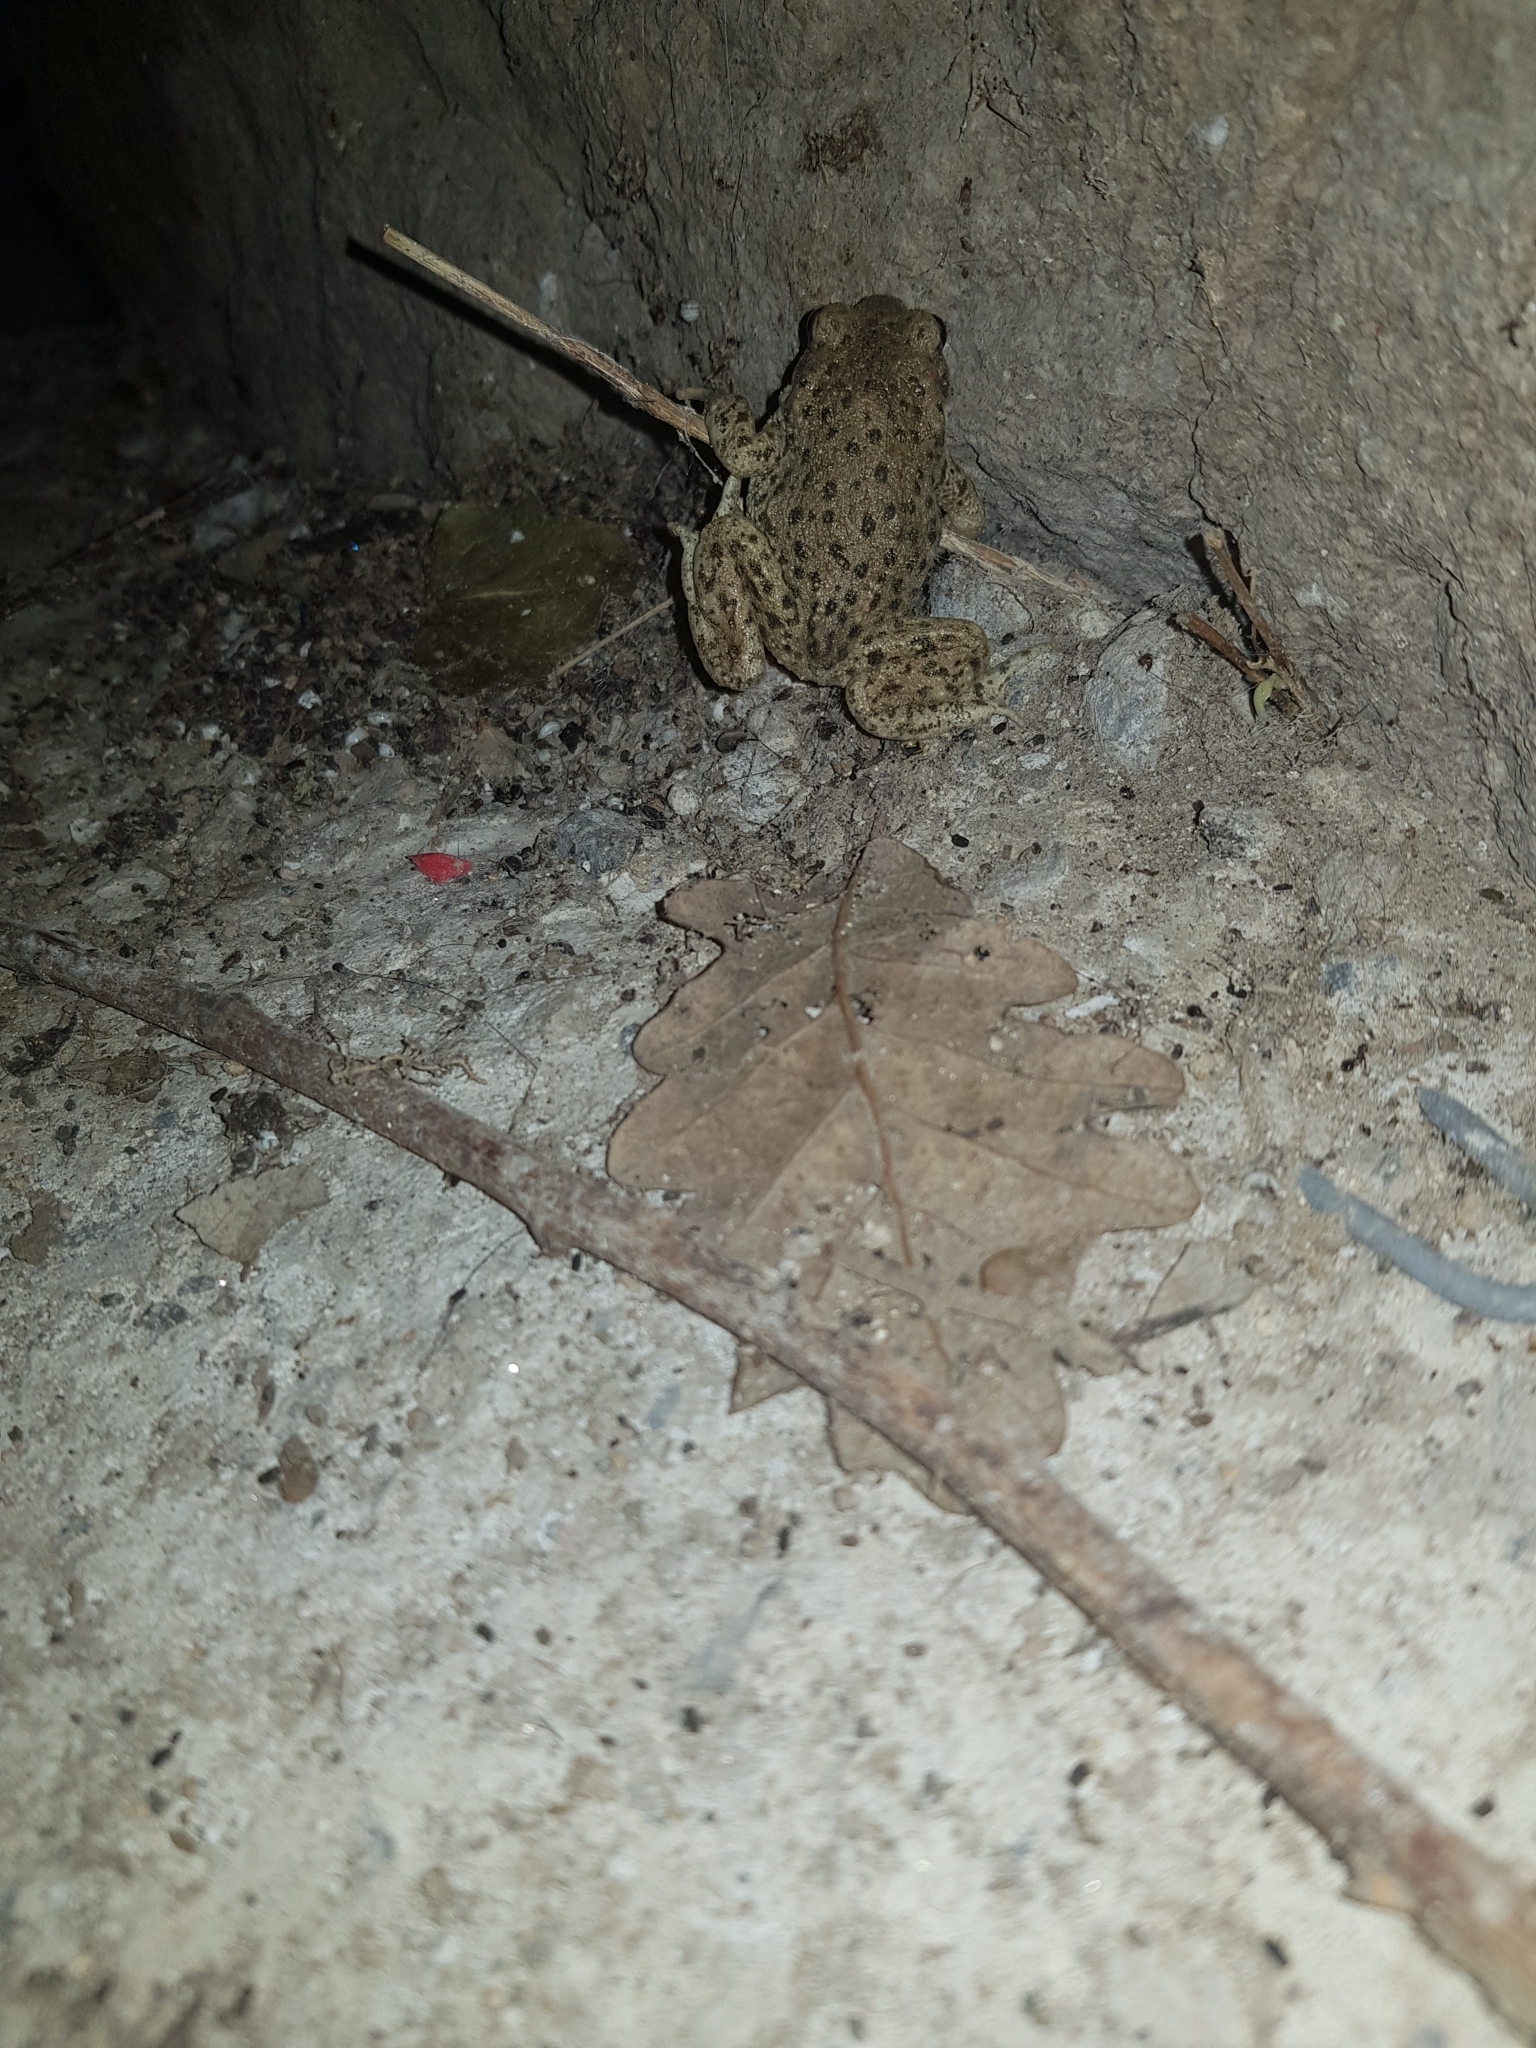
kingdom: Animalia
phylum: Chordata
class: Amphibia
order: Anura
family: Alytidae
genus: Alytes
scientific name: Alytes obstetricans
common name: Midwife toad
